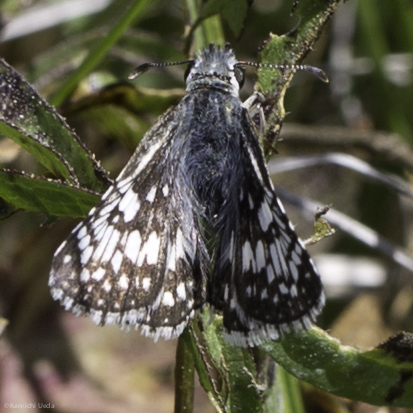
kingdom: Animalia
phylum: Arthropoda
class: Insecta
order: Lepidoptera
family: Hesperiidae
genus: Burnsius
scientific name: Burnsius communis
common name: Common checkered-skipper
